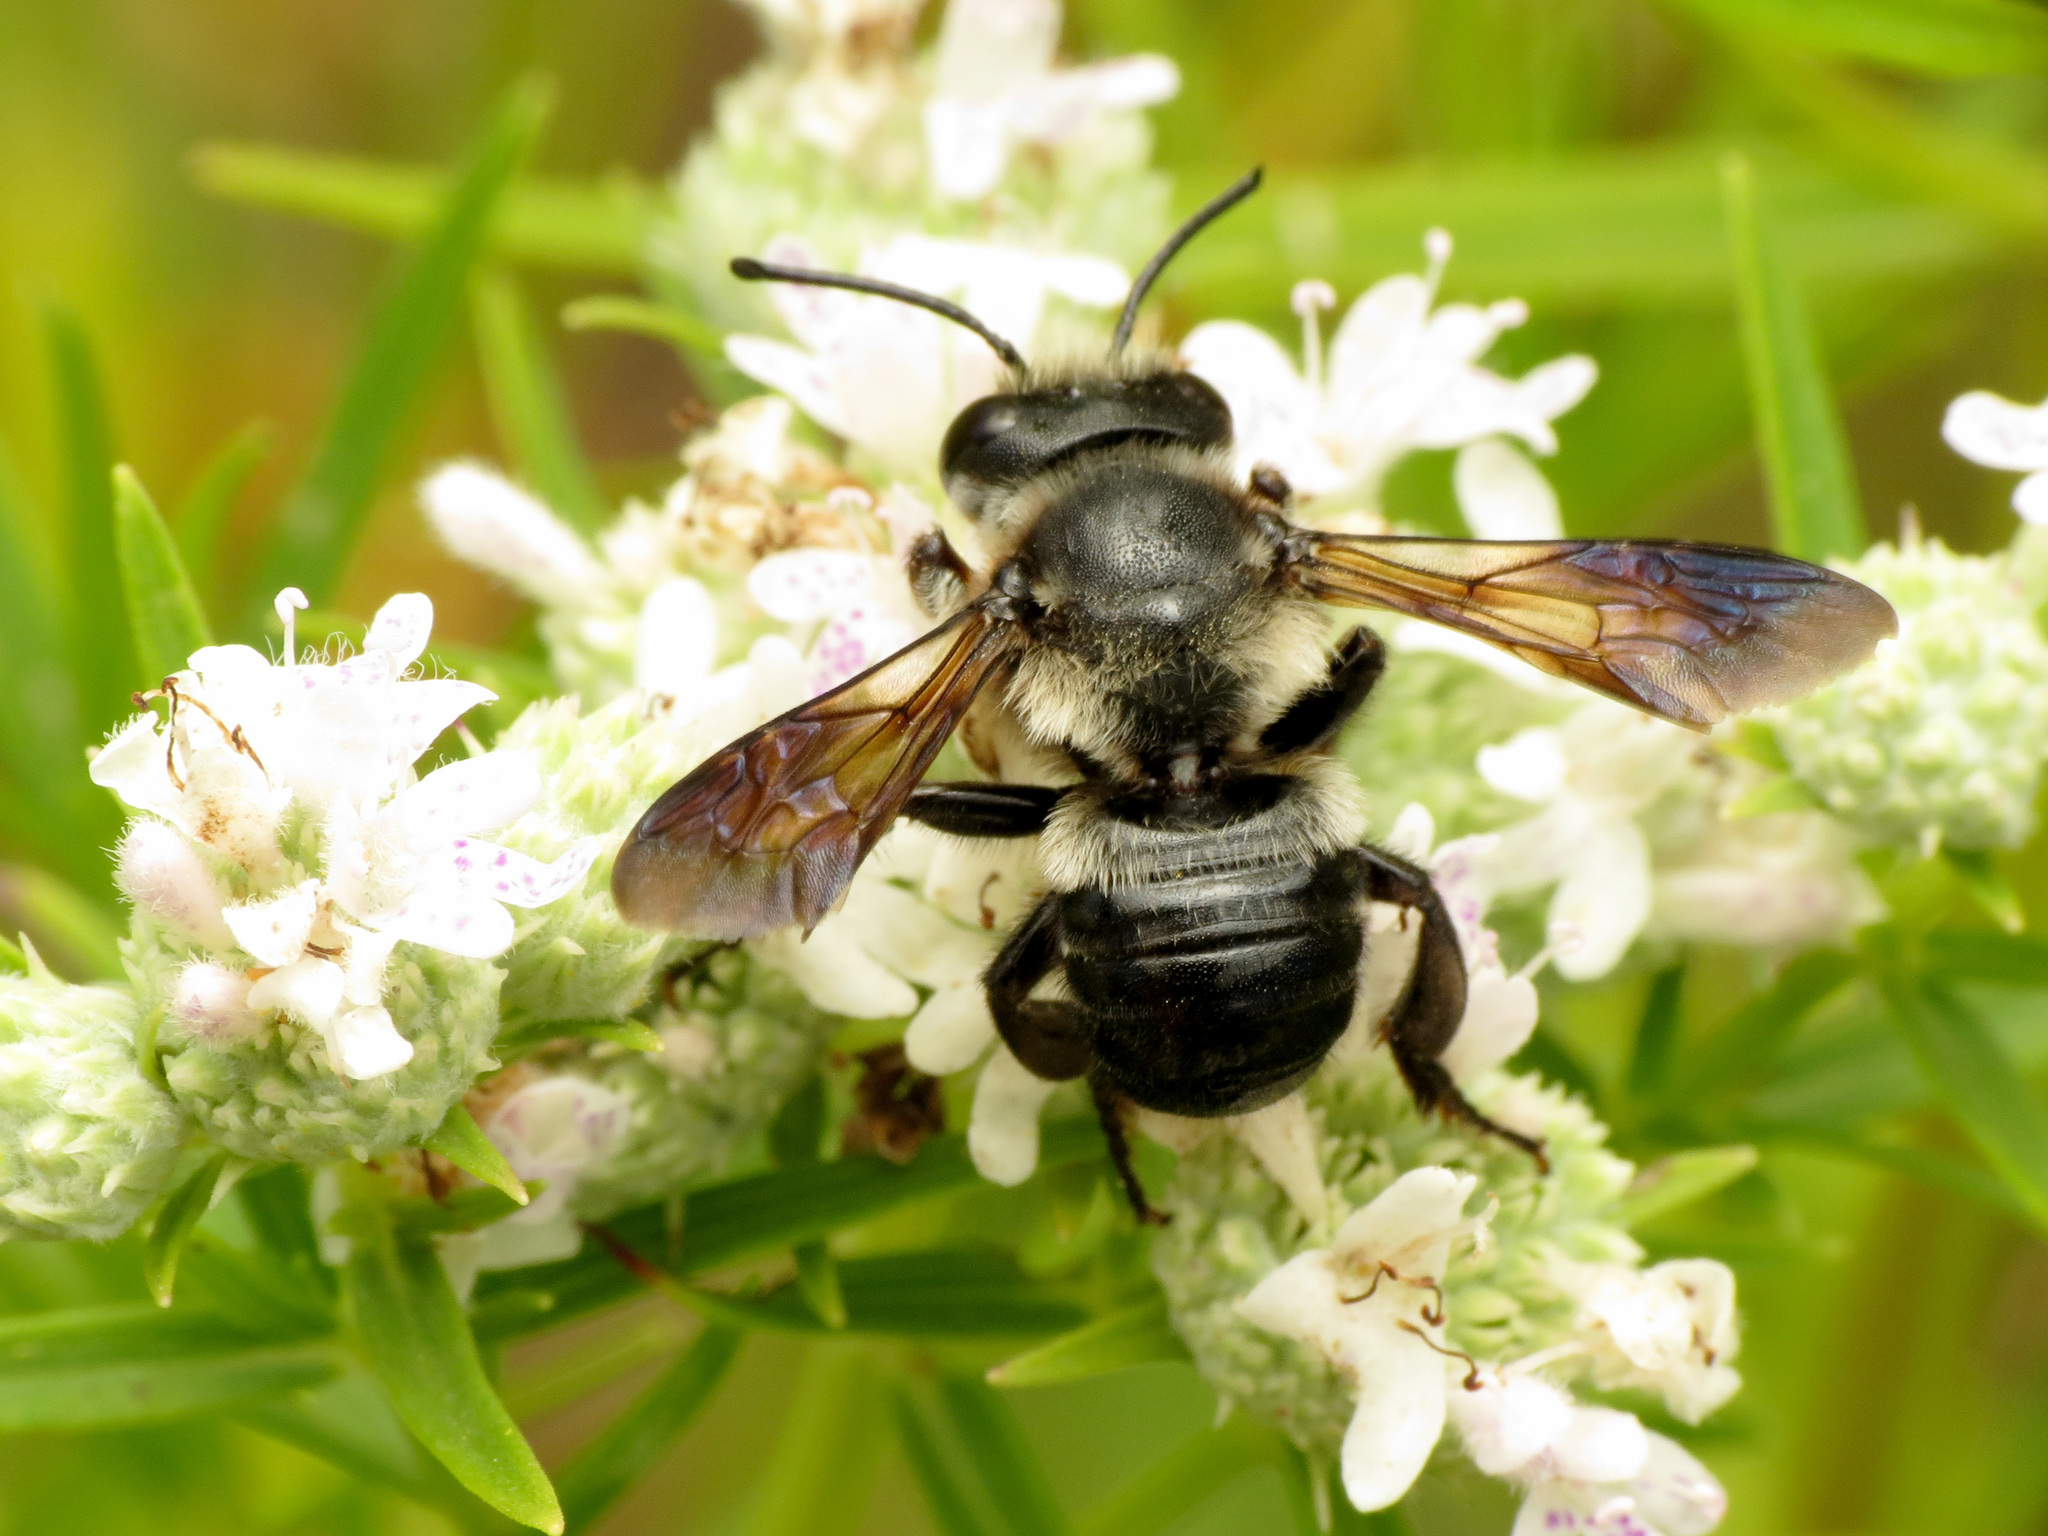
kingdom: Animalia
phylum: Arthropoda
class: Insecta
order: Hymenoptera
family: Megachilidae
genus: Megachile
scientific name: Megachile xylocopoides
